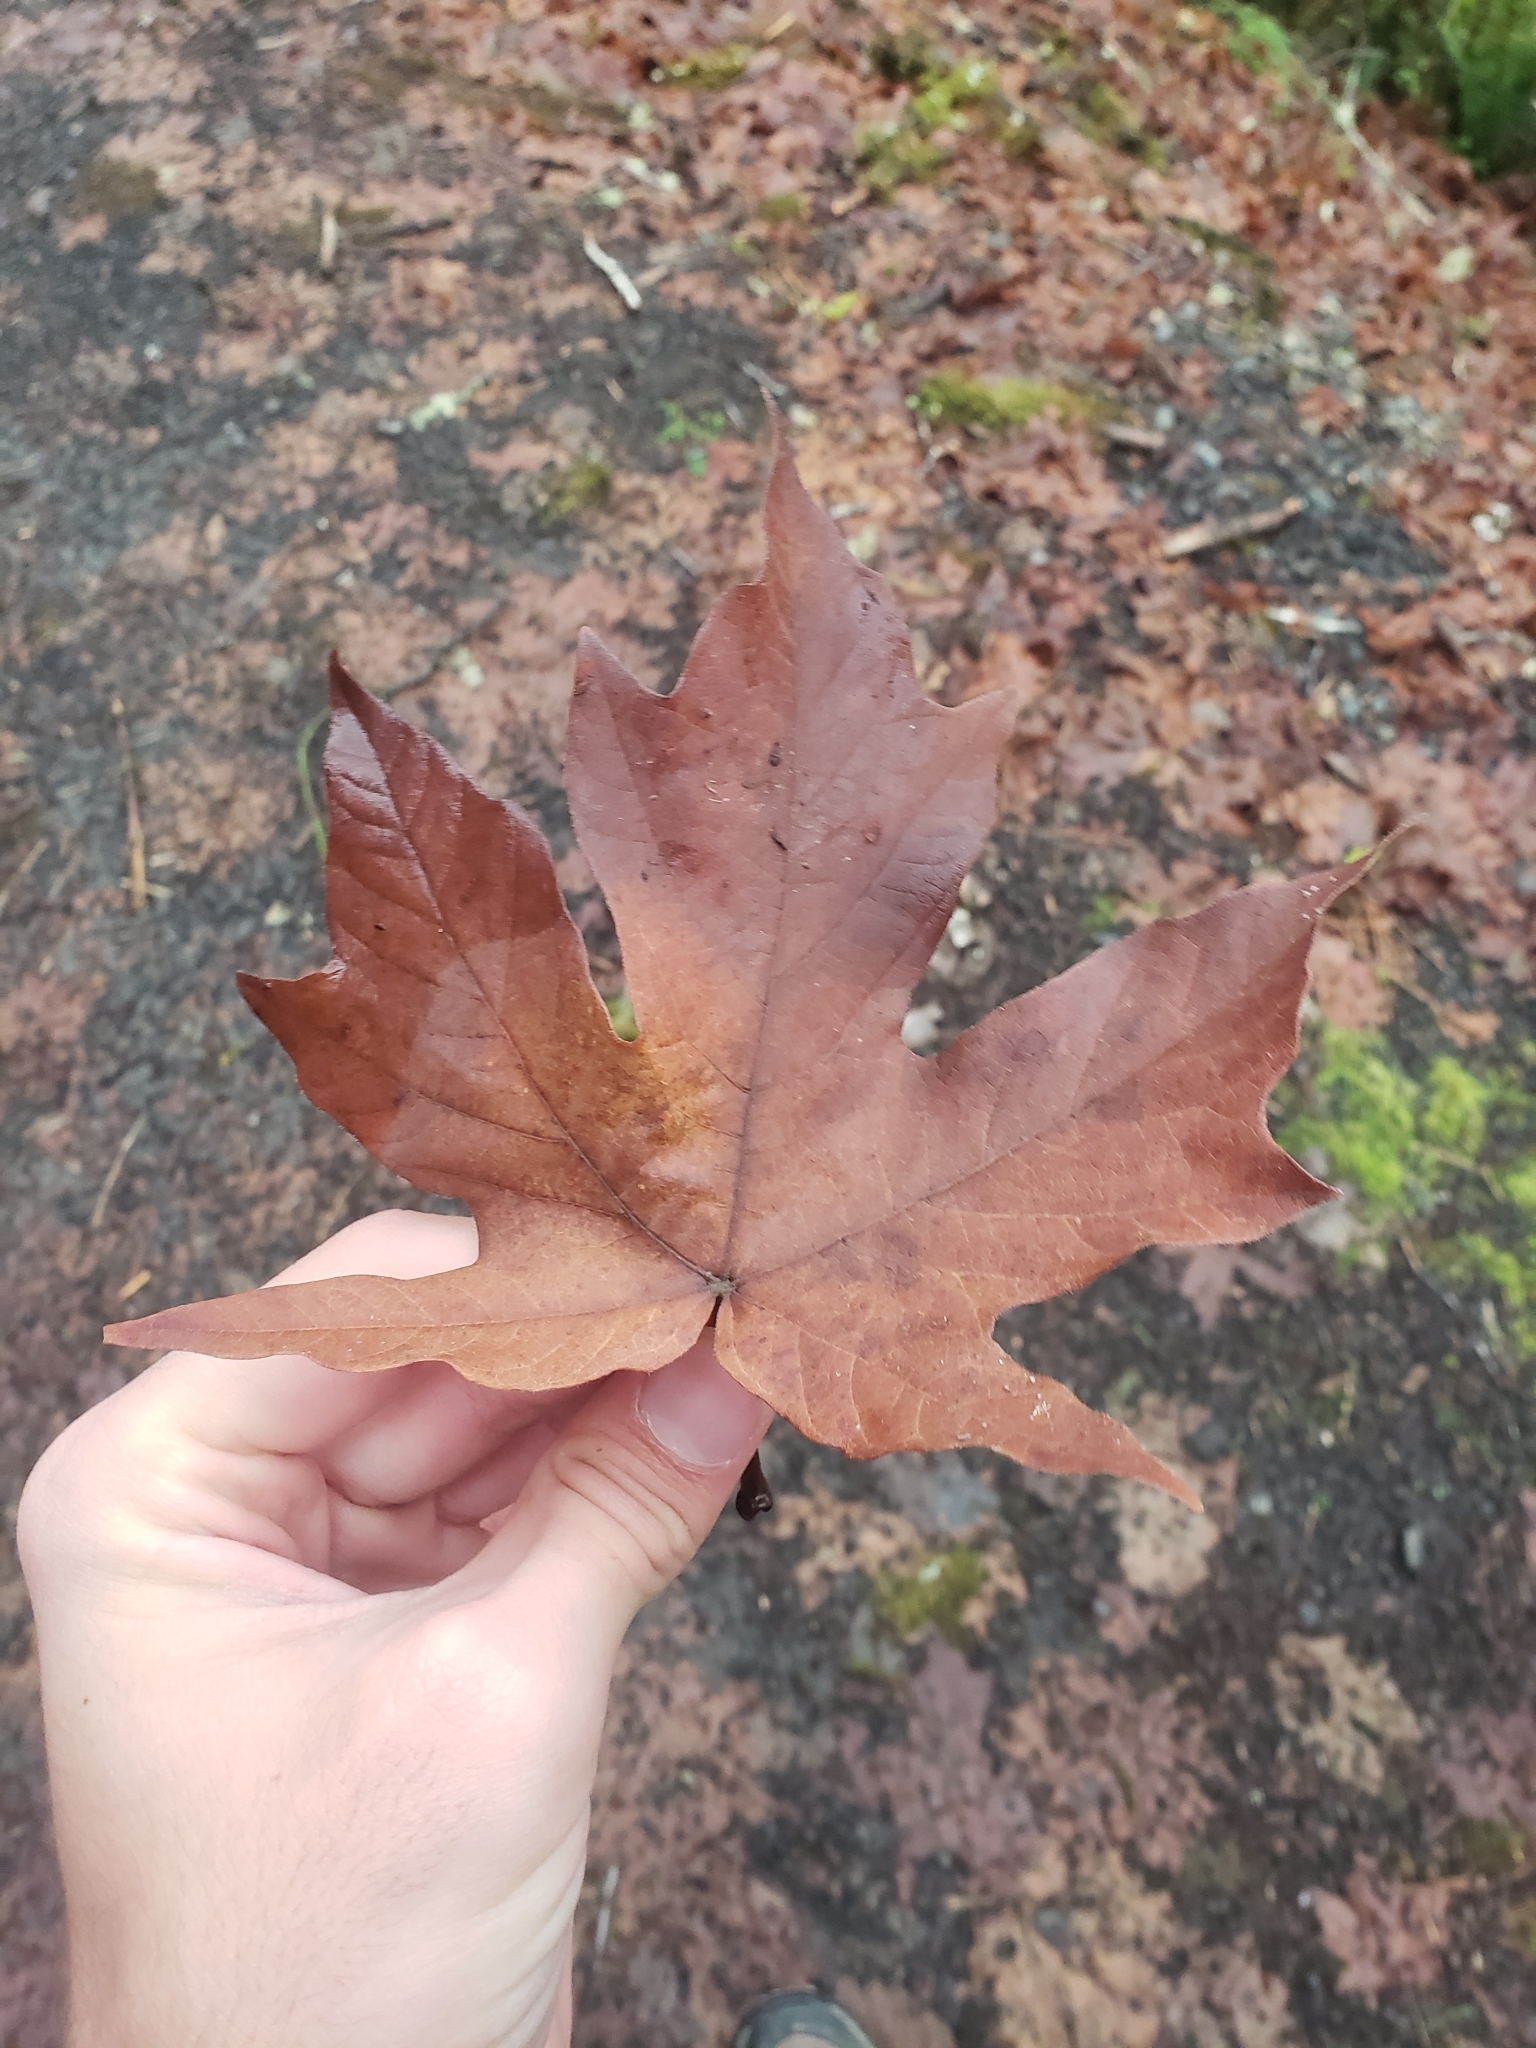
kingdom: Plantae
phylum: Tracheophyta
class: Magnoliopsida
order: Sapindales
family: Sapindaceae
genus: Acer
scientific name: Acer macrophyllum
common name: Oregon maple
